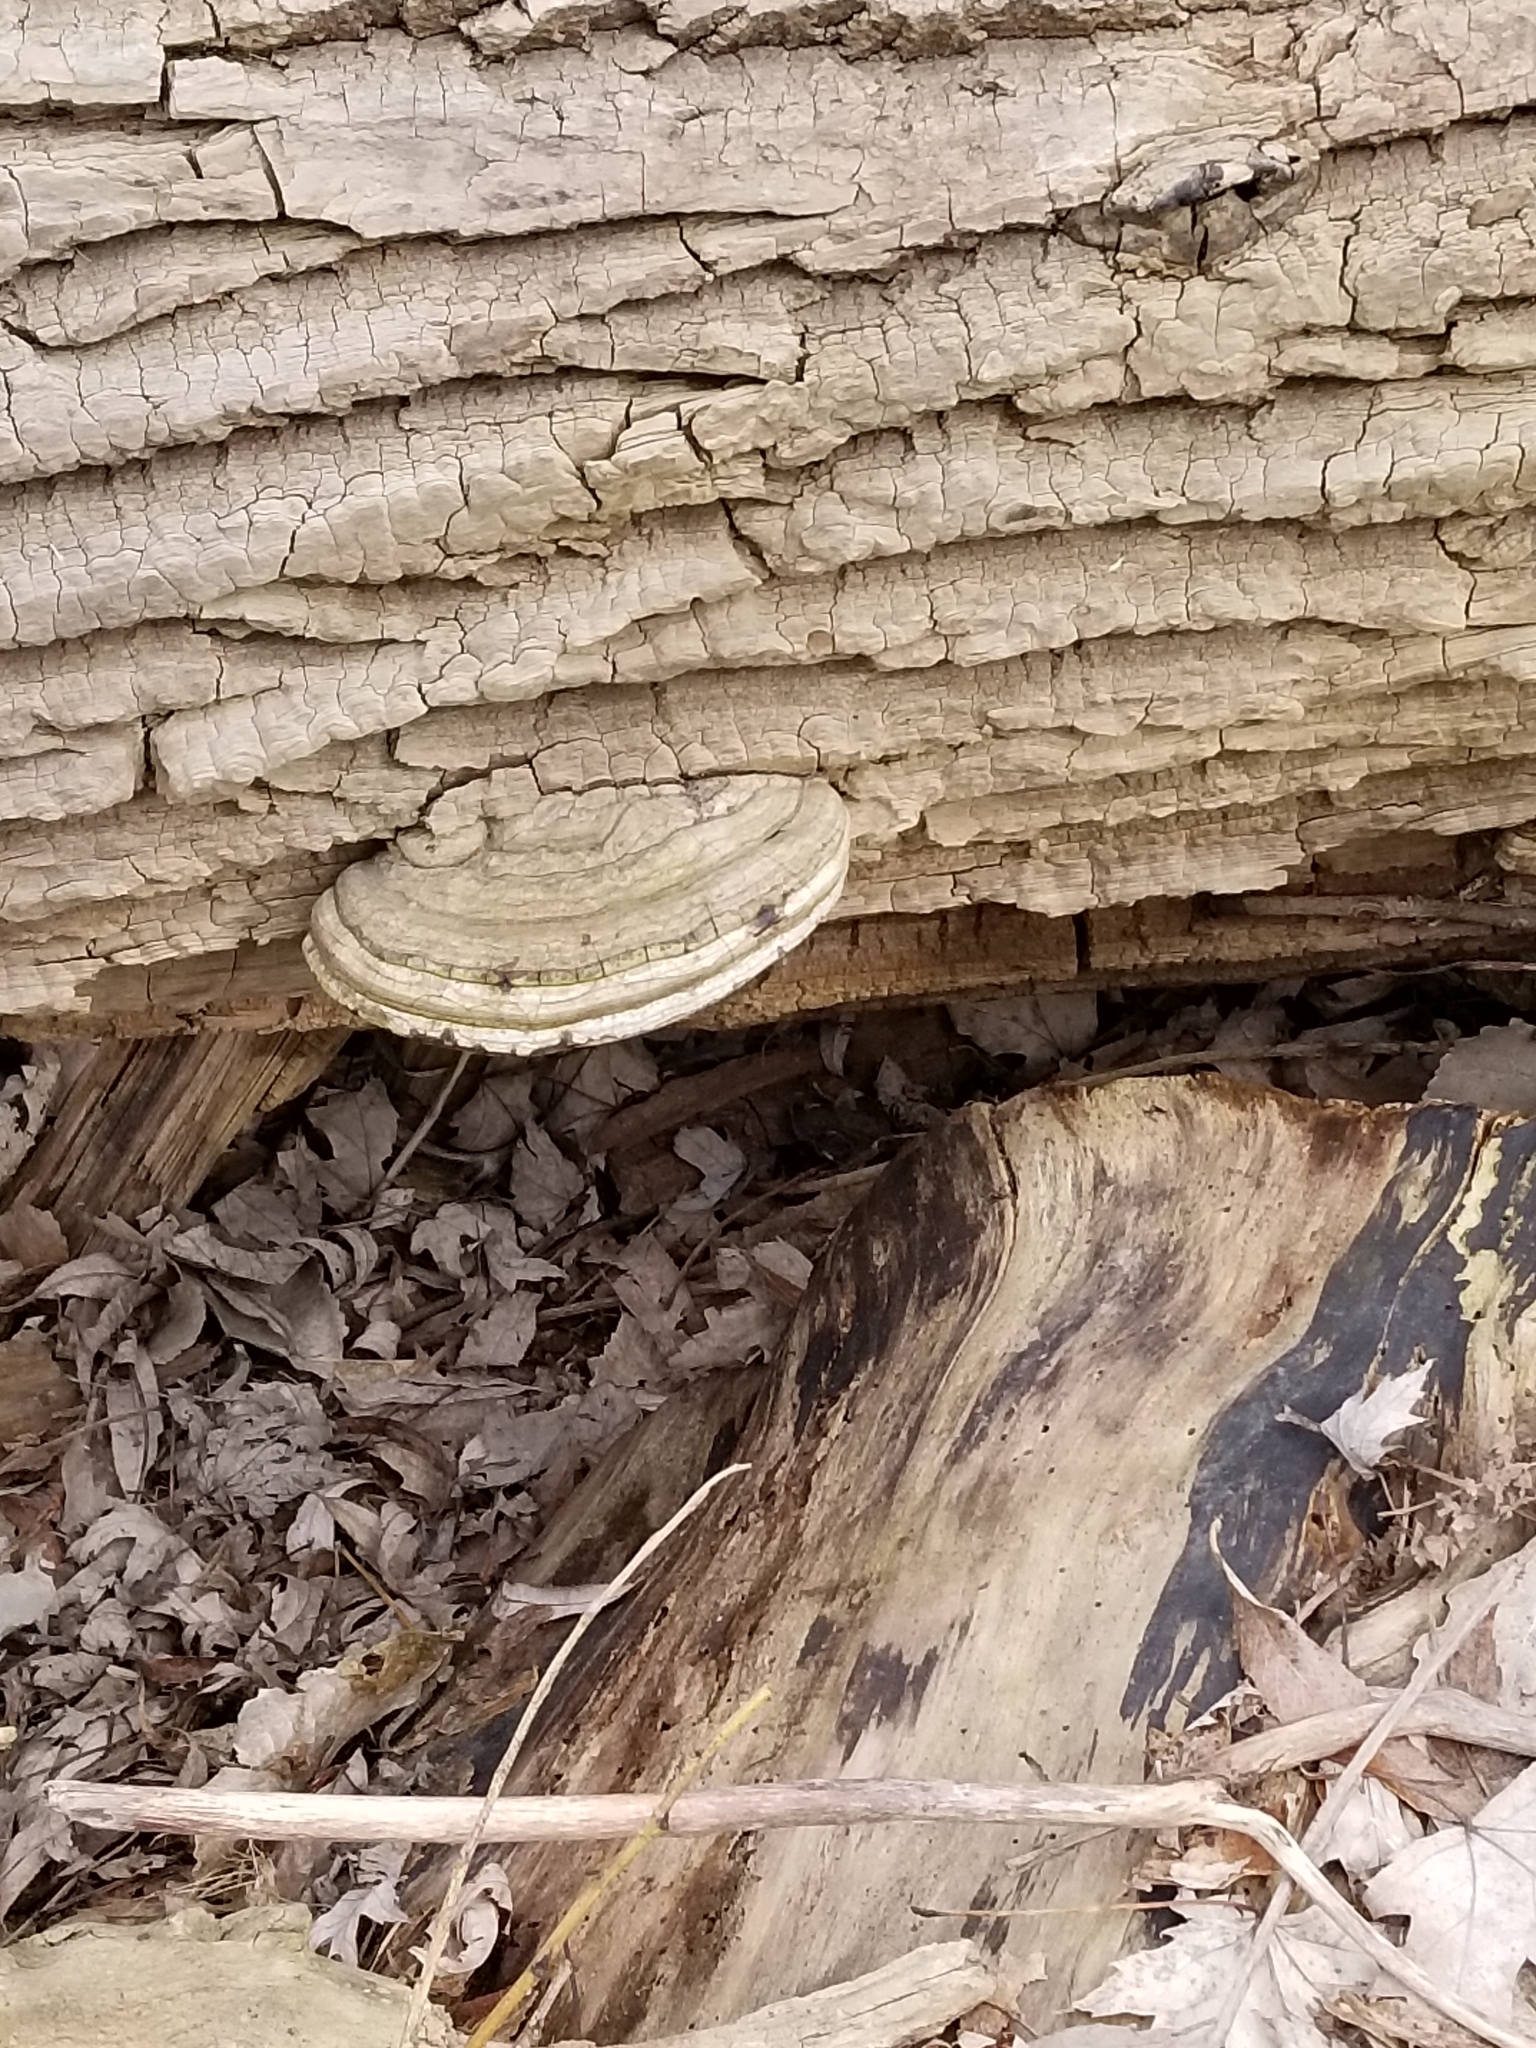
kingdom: Fungi
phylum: Basidiomycota
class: Agaricomycetes
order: Polyporales
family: Polyporaceae
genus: Ganoderma
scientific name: Ganoderma applanatum
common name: Artist's bracket
